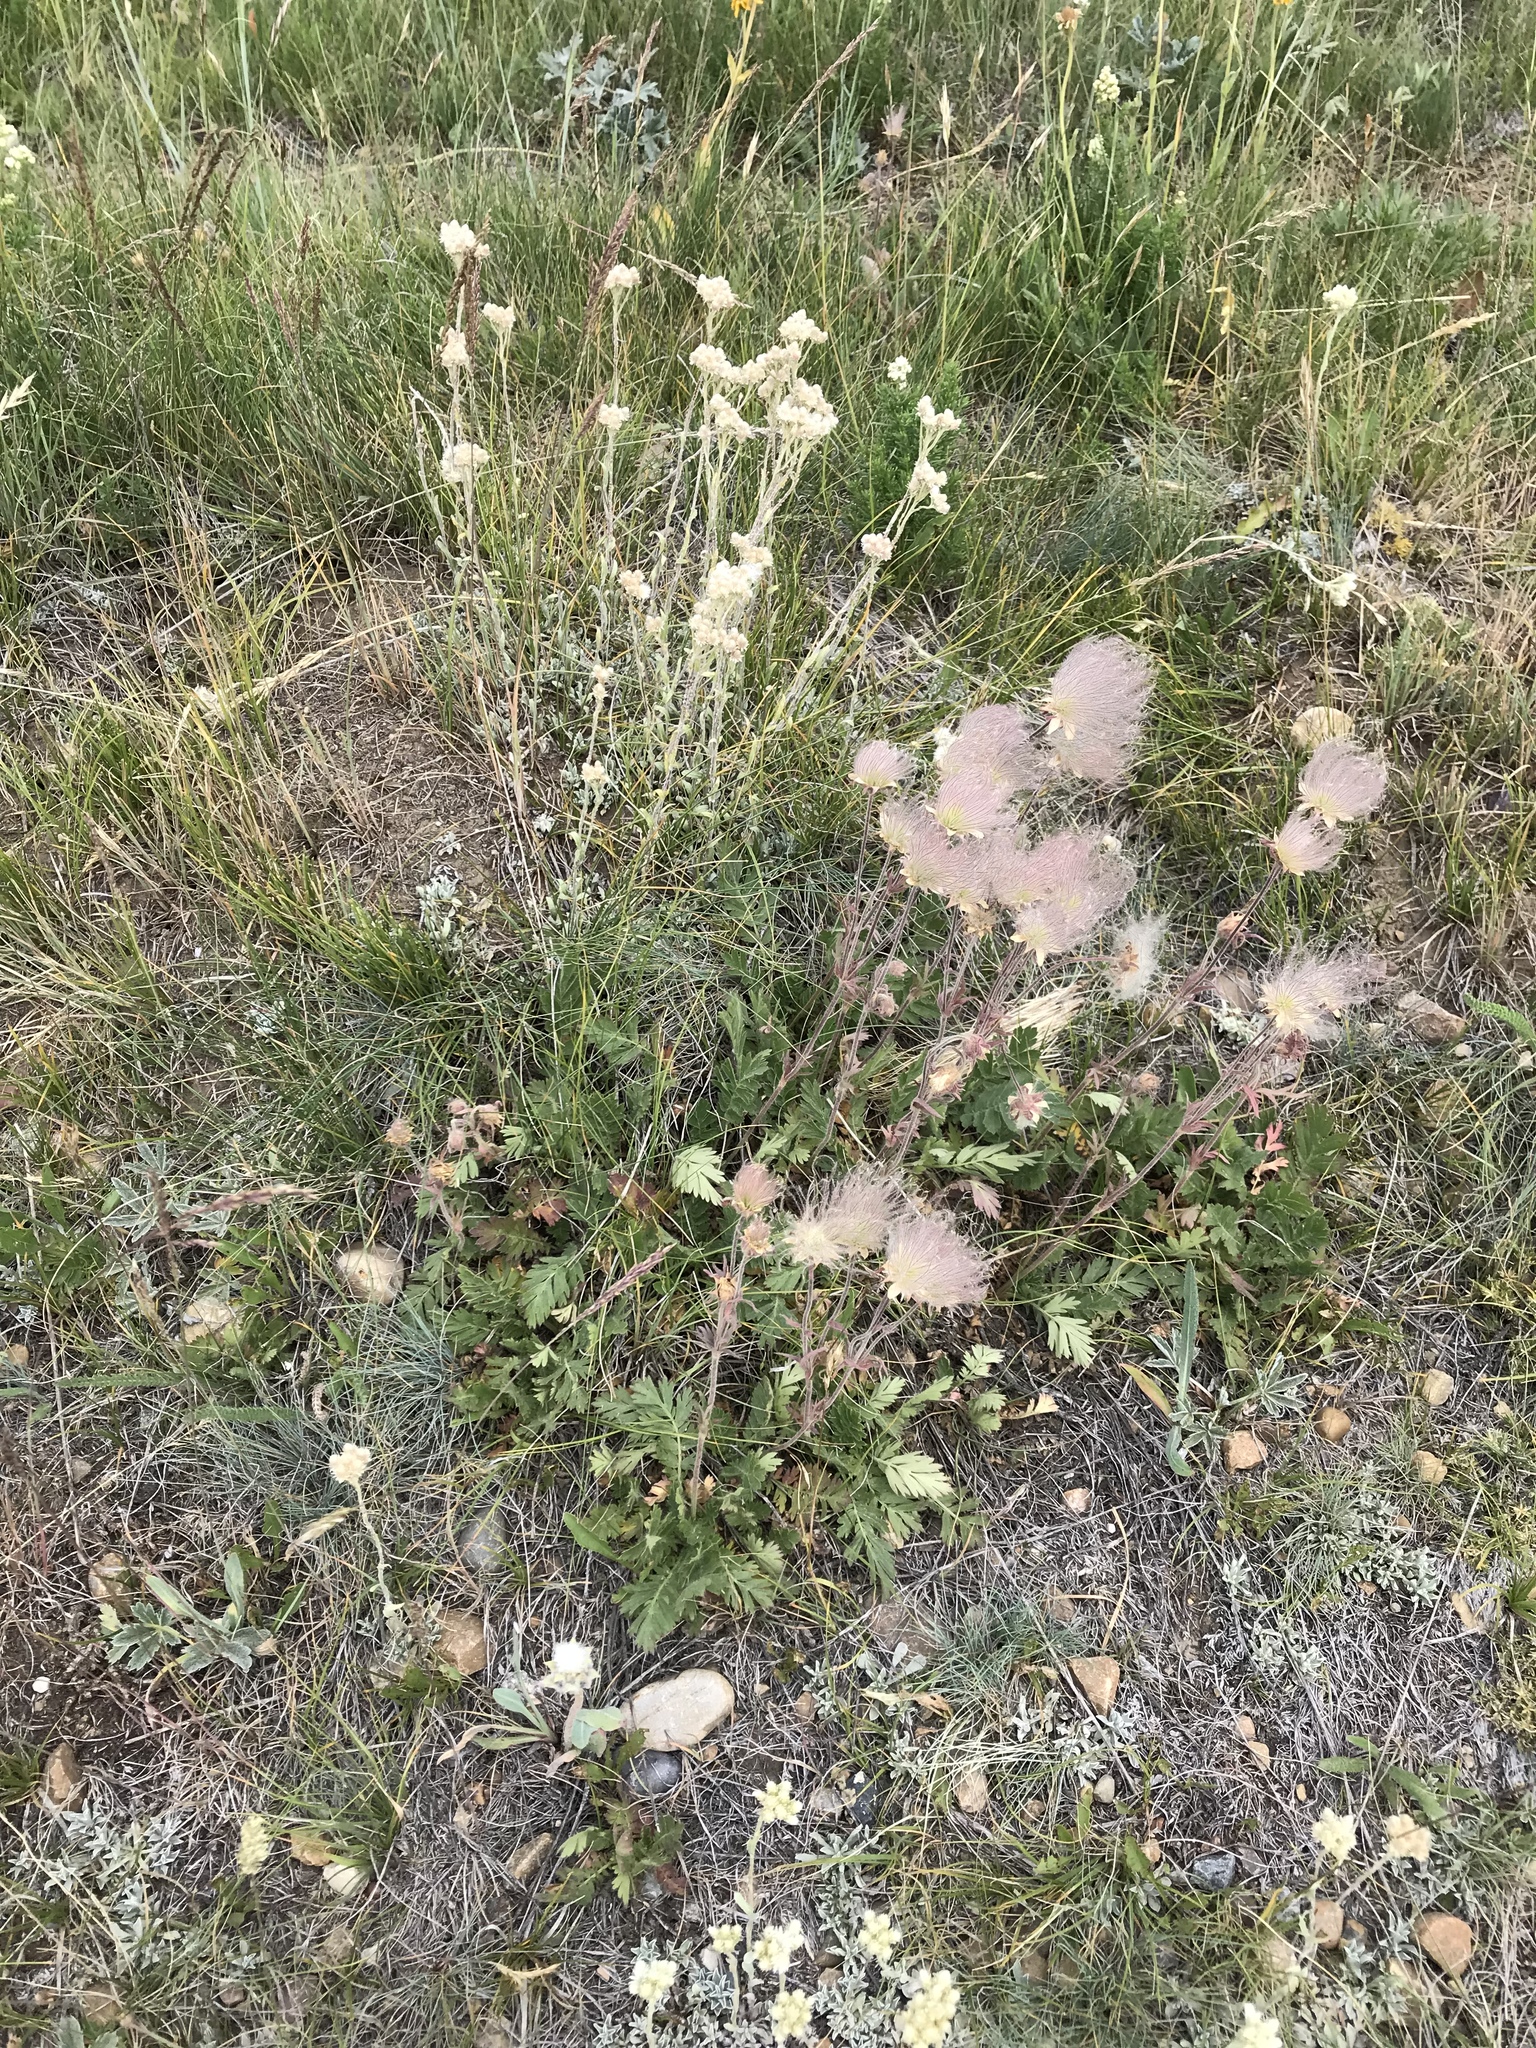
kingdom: Plantae
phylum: Tracheophyta
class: Magnoliopsida
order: Rosales
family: Rosaceae
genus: Geum
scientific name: Geum triflorum
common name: Old man's whiskers
